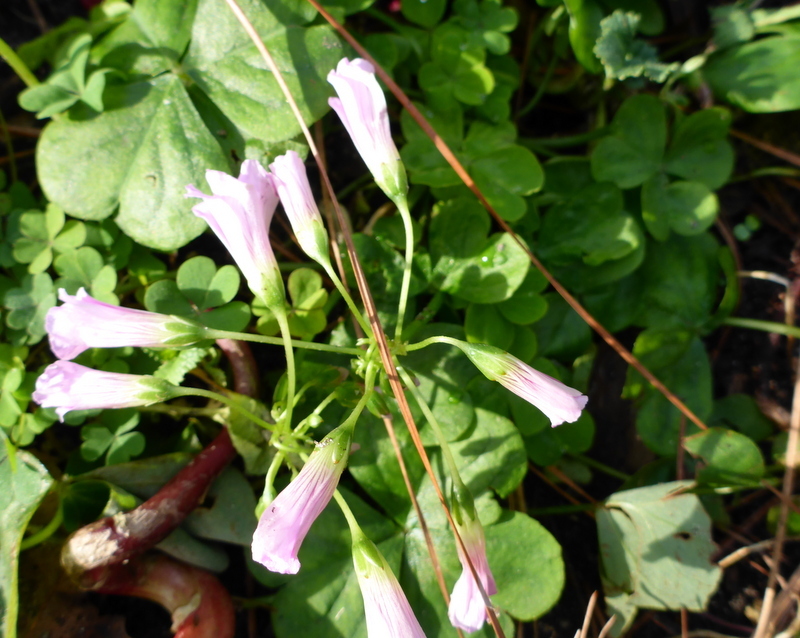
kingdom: Plantae
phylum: Tracheophyta
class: Magnoliopsida
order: Oxalidales
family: Oxalidaceae
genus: Oxalis
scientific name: Oxalis debilis
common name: Large-flowered pink-sorrel
